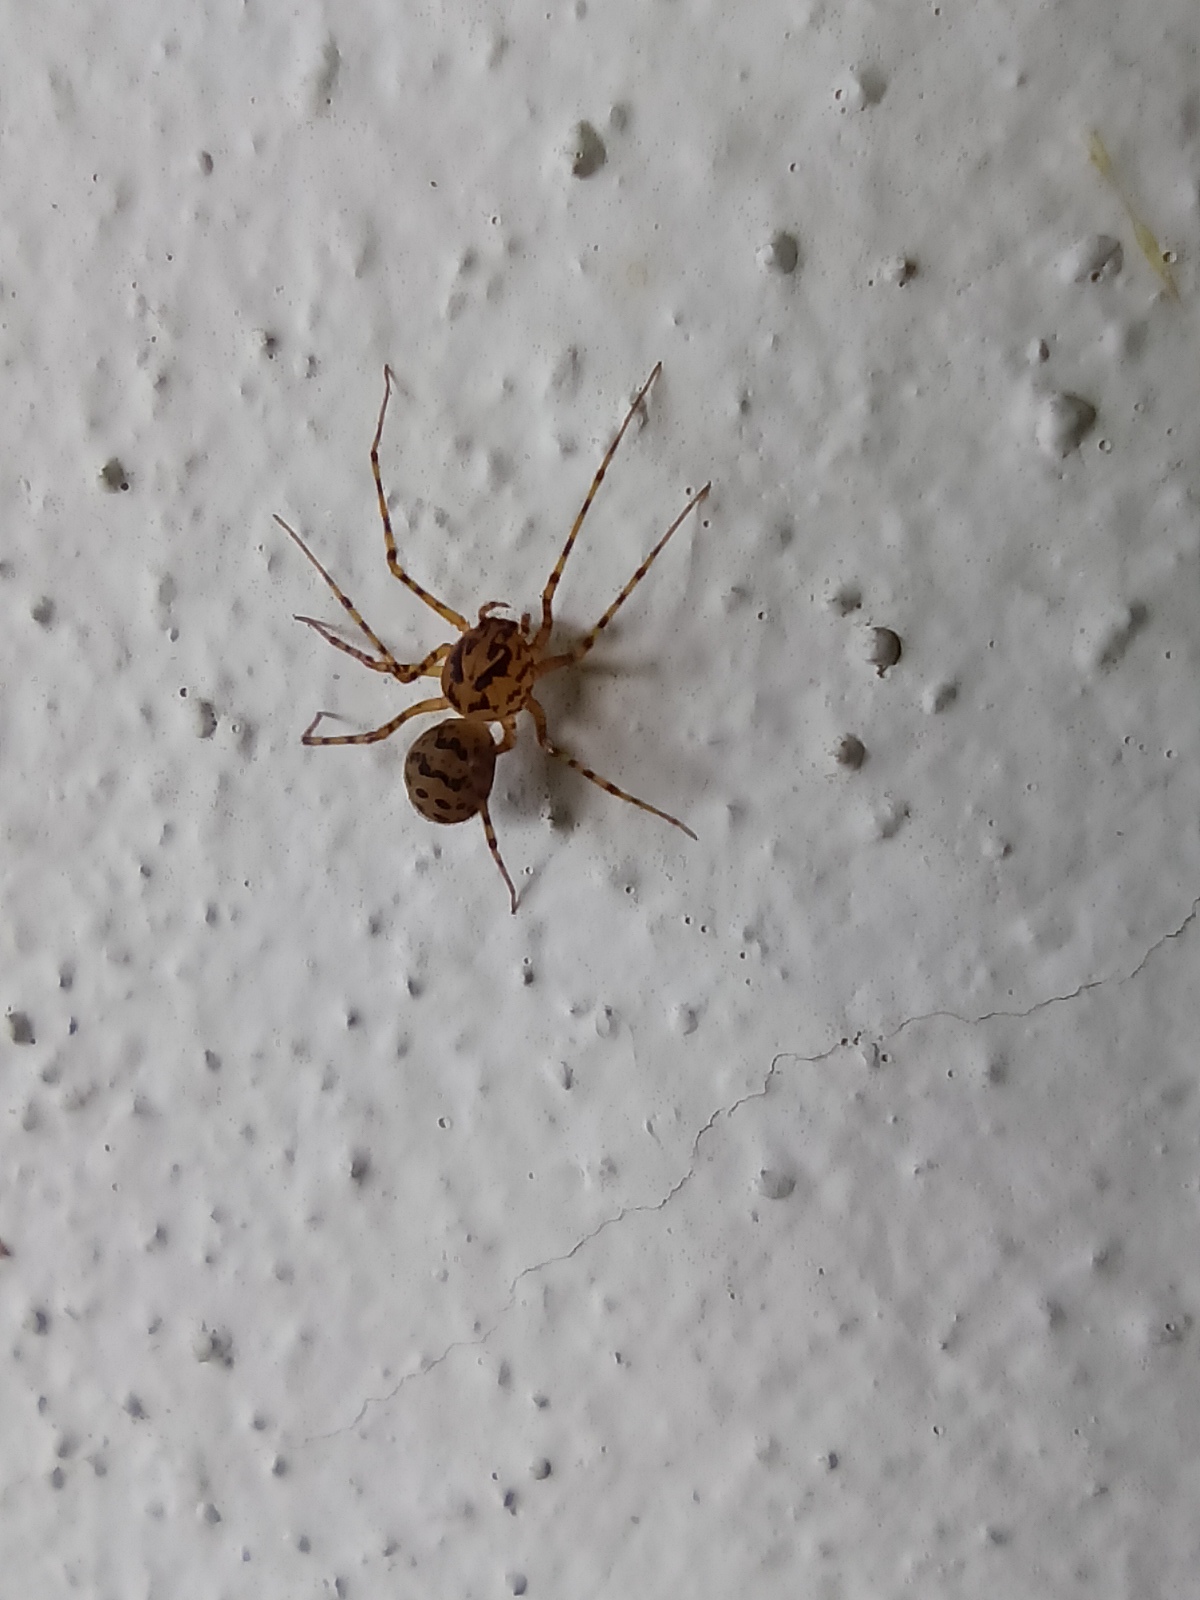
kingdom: Animalia
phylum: Arthropoda
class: Arachnida
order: Araneae
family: Scytodidae
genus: Scytodes
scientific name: Scytodes thoracica
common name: Spitting spider
